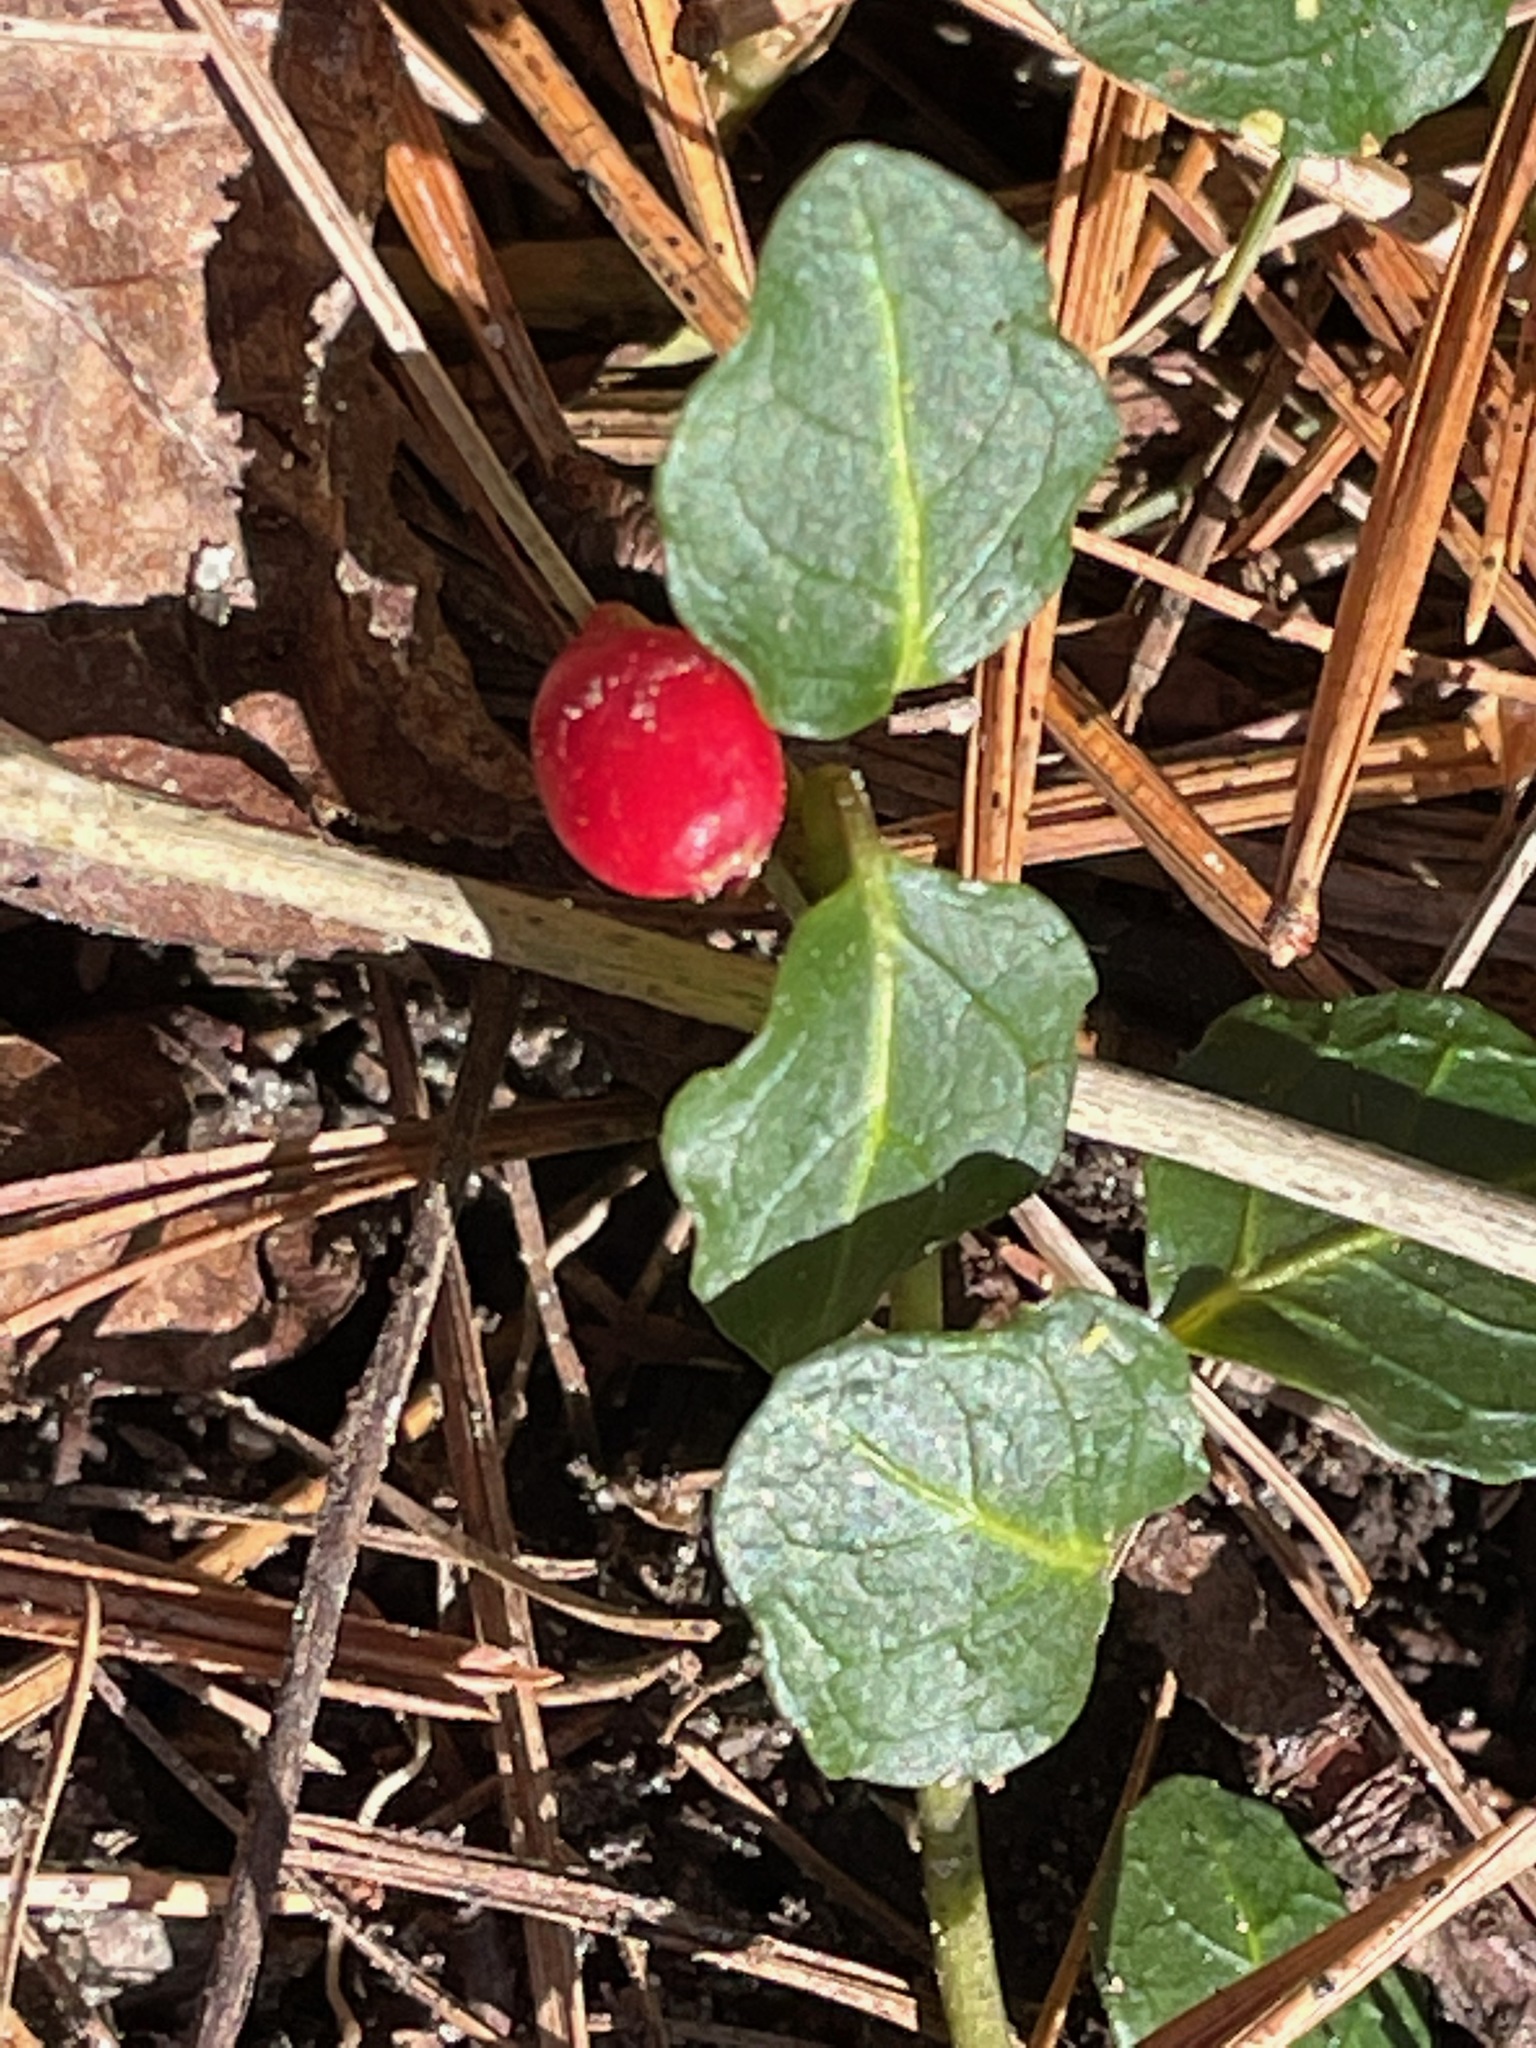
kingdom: Plantae
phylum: Tracheophyta
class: Magnoliopsida
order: Gentianales
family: Rubiaceae
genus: Mitchella
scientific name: Mitchella repens
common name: Partridge-berry
